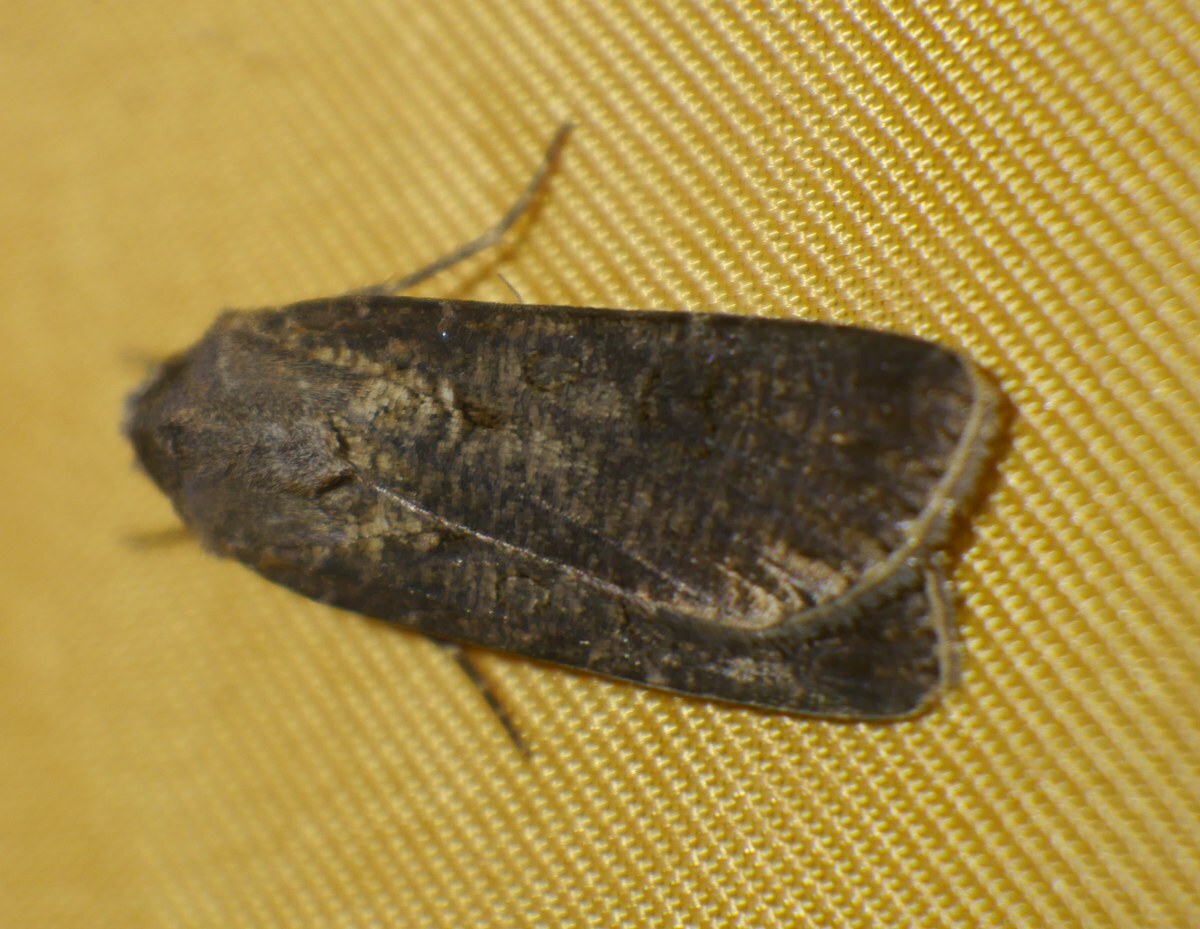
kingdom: Animalia
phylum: Arthropoda
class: Insecta
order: Lepidoptera
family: Noctuidae
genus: Agrotis
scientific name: Agrotis segetum
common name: Turnip moth
